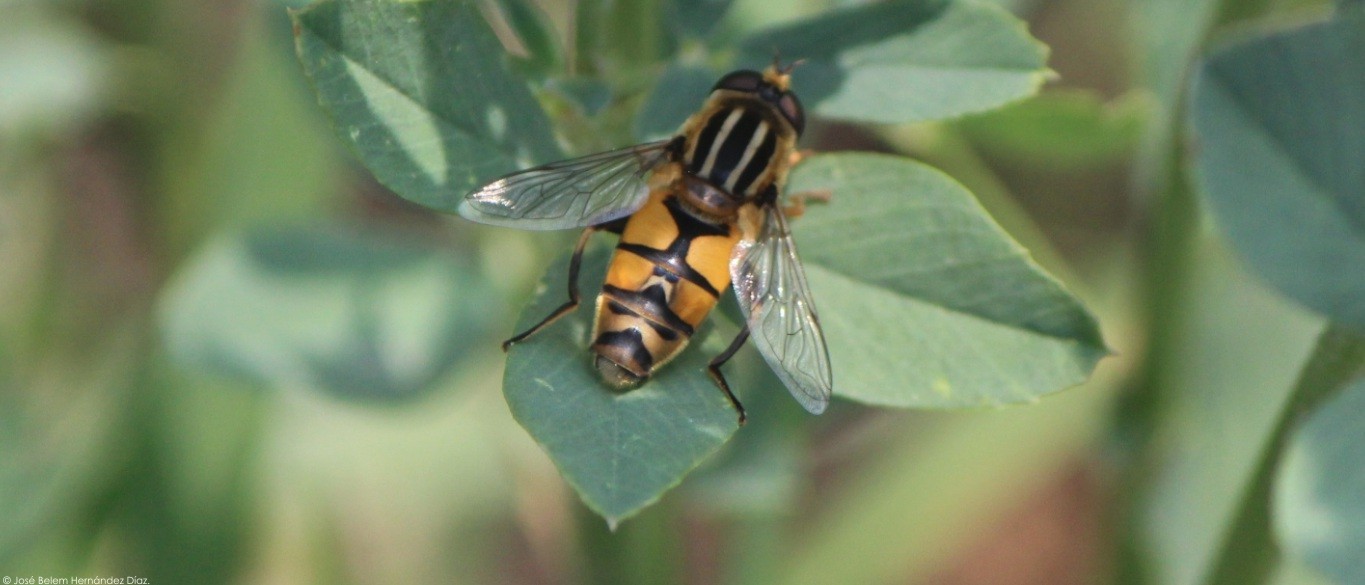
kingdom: Animalia
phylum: Arthropoda
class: Insecta
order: Diptera
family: Syrphidae
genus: Helophilus
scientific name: Helophilus latifrons
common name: Broad-headed marsh fly
